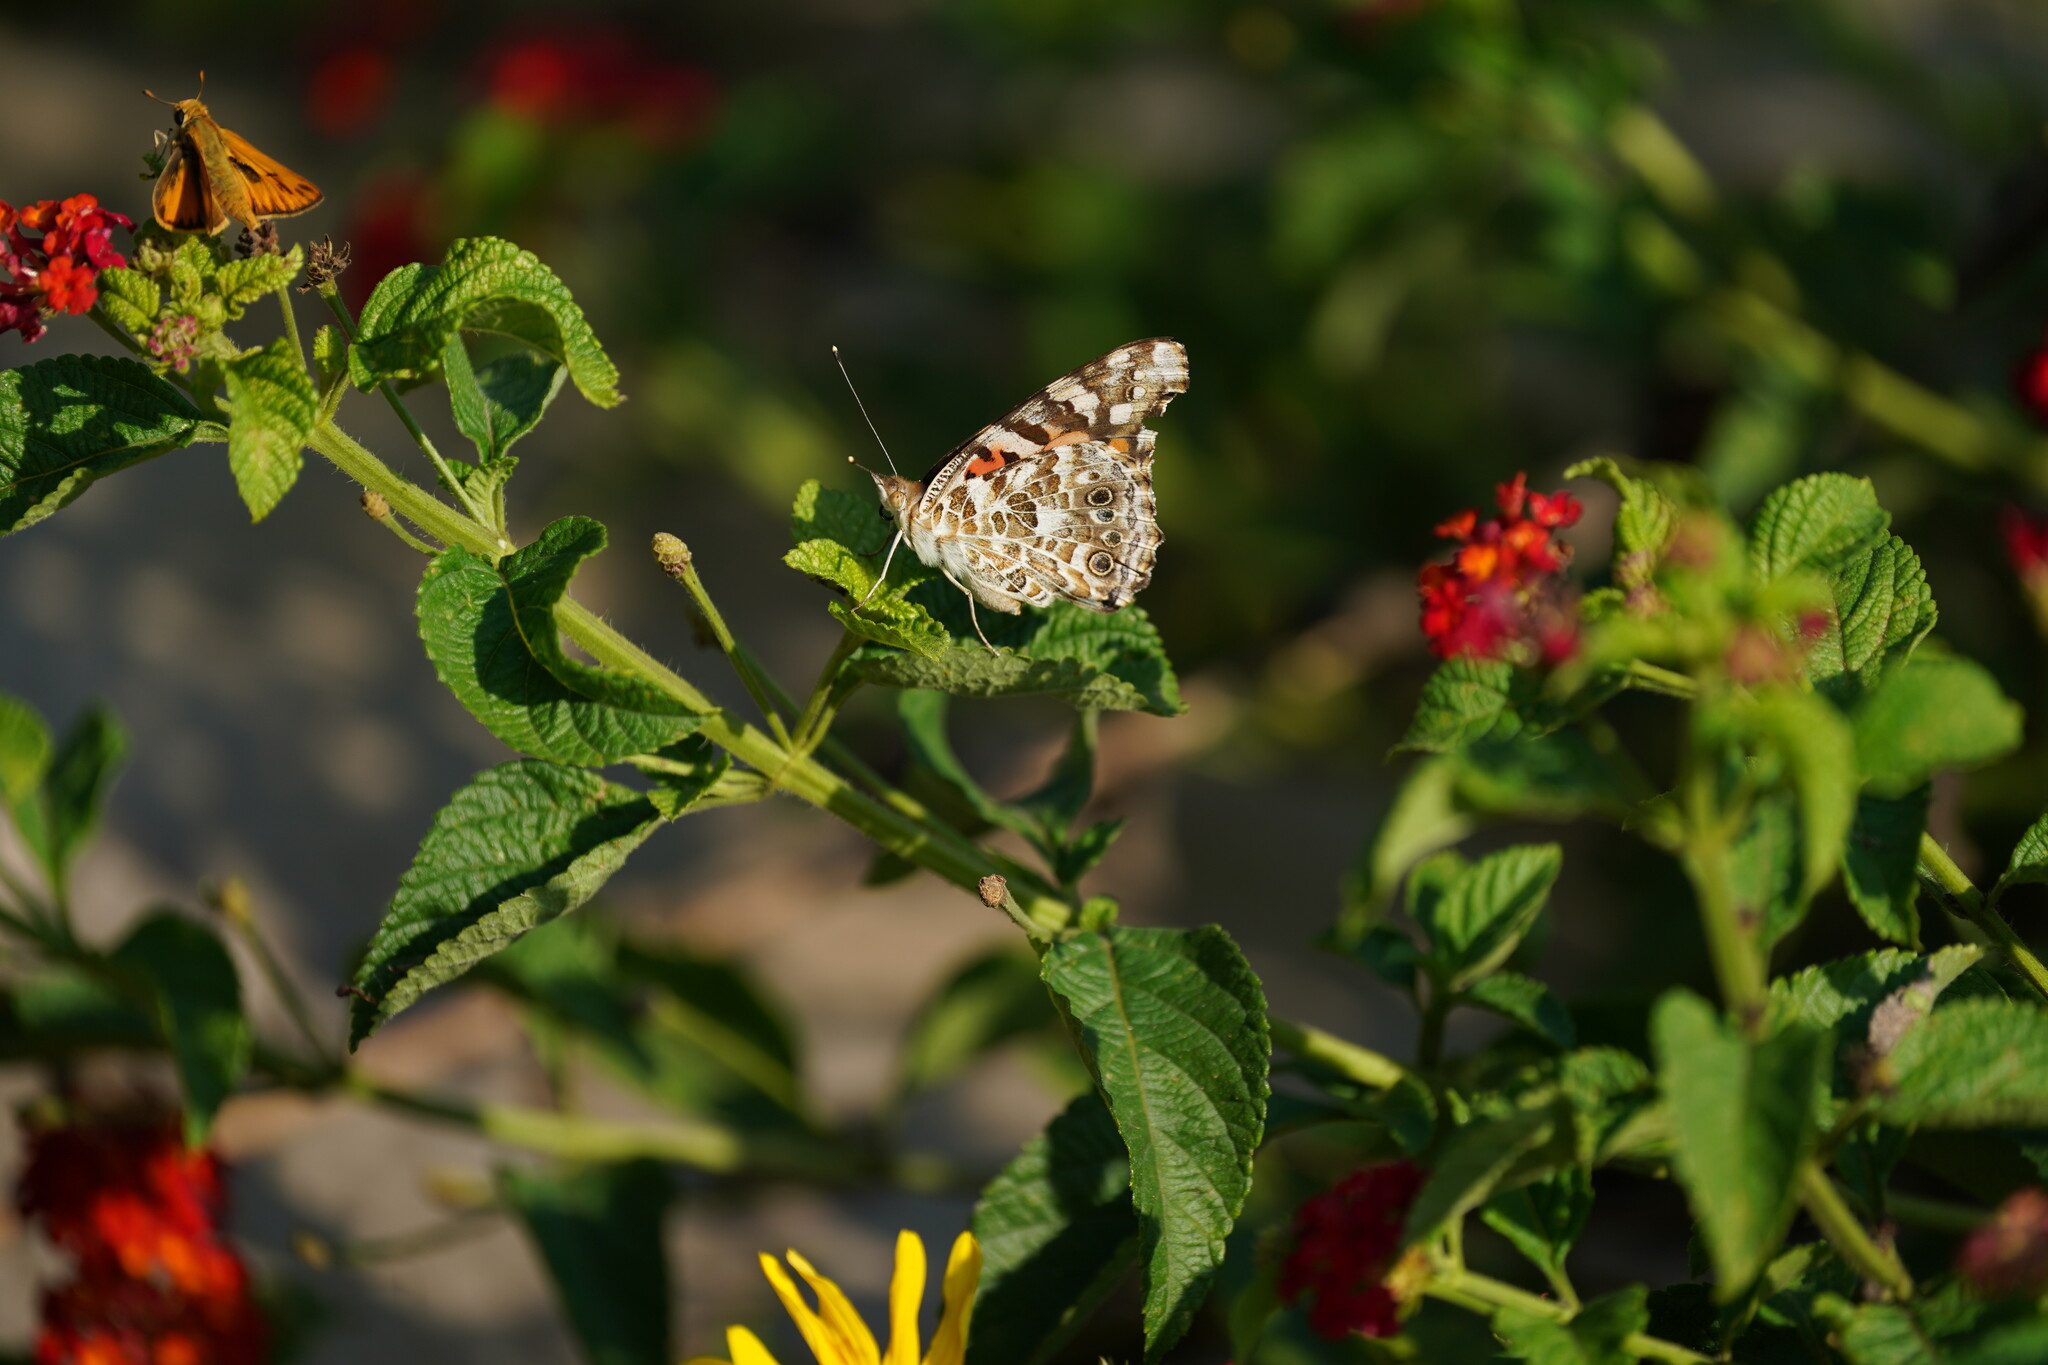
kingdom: Animalia
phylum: Arthropoda
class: Insecta
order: Lepidoptera
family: Nymphalidae
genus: Vanessa
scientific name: Vanessa cardui
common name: Painted lady
